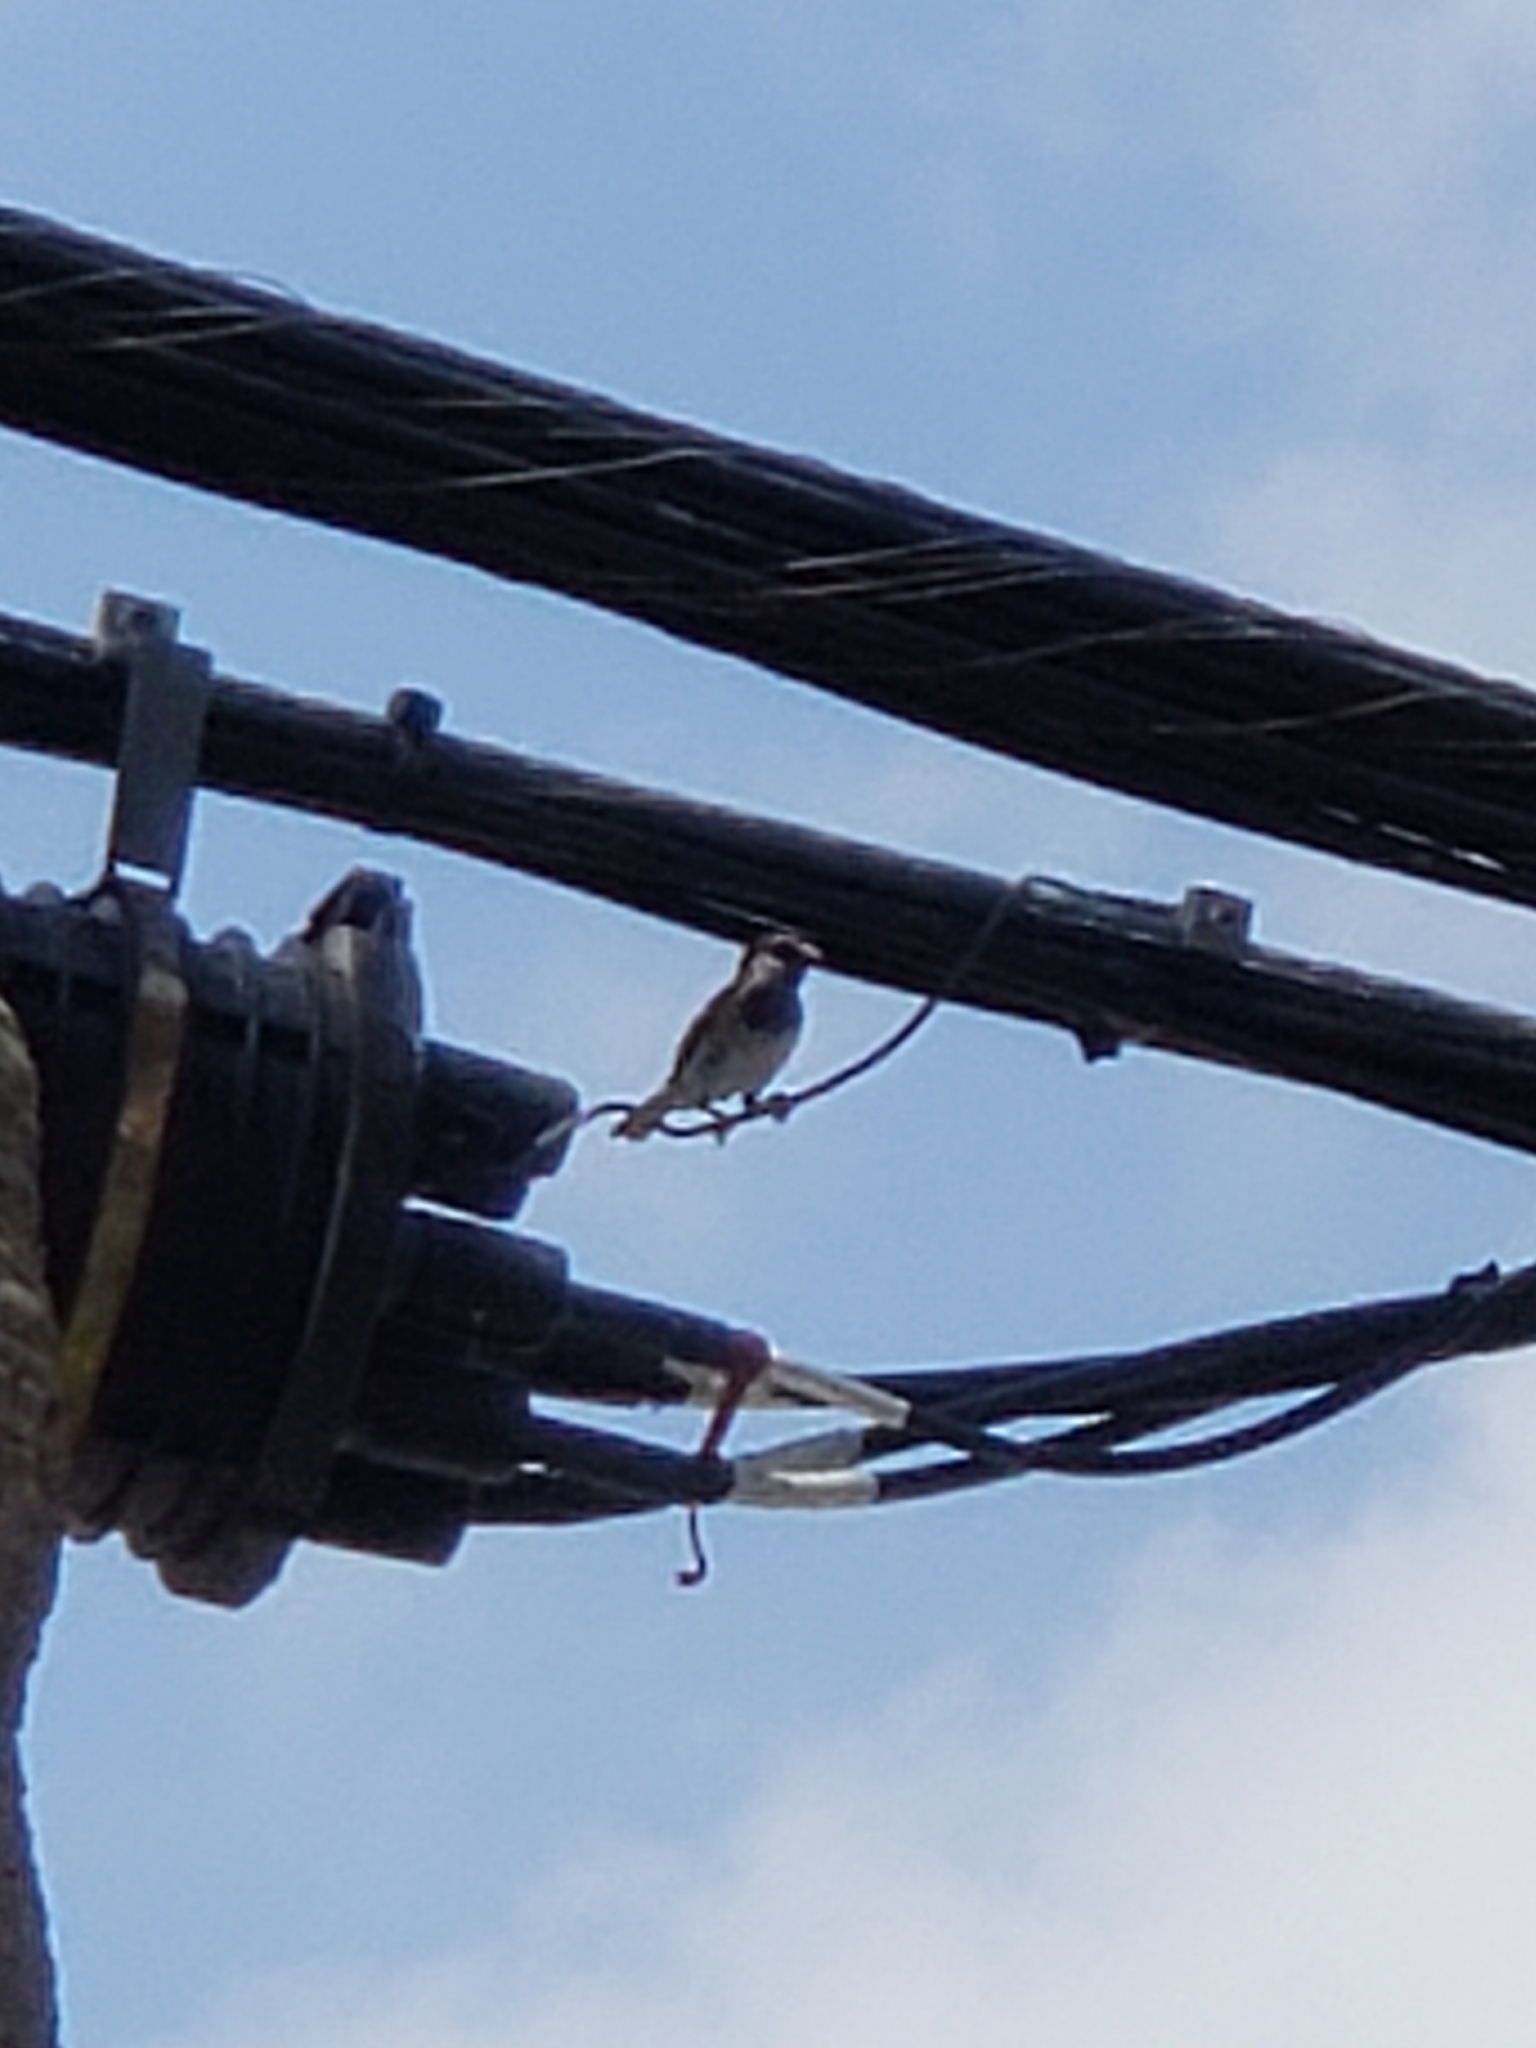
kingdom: Animalia
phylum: Chordata
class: Aves
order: Passeriformes
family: Passeridae
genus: Passer
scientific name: Passer domesticus
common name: House sparrow
